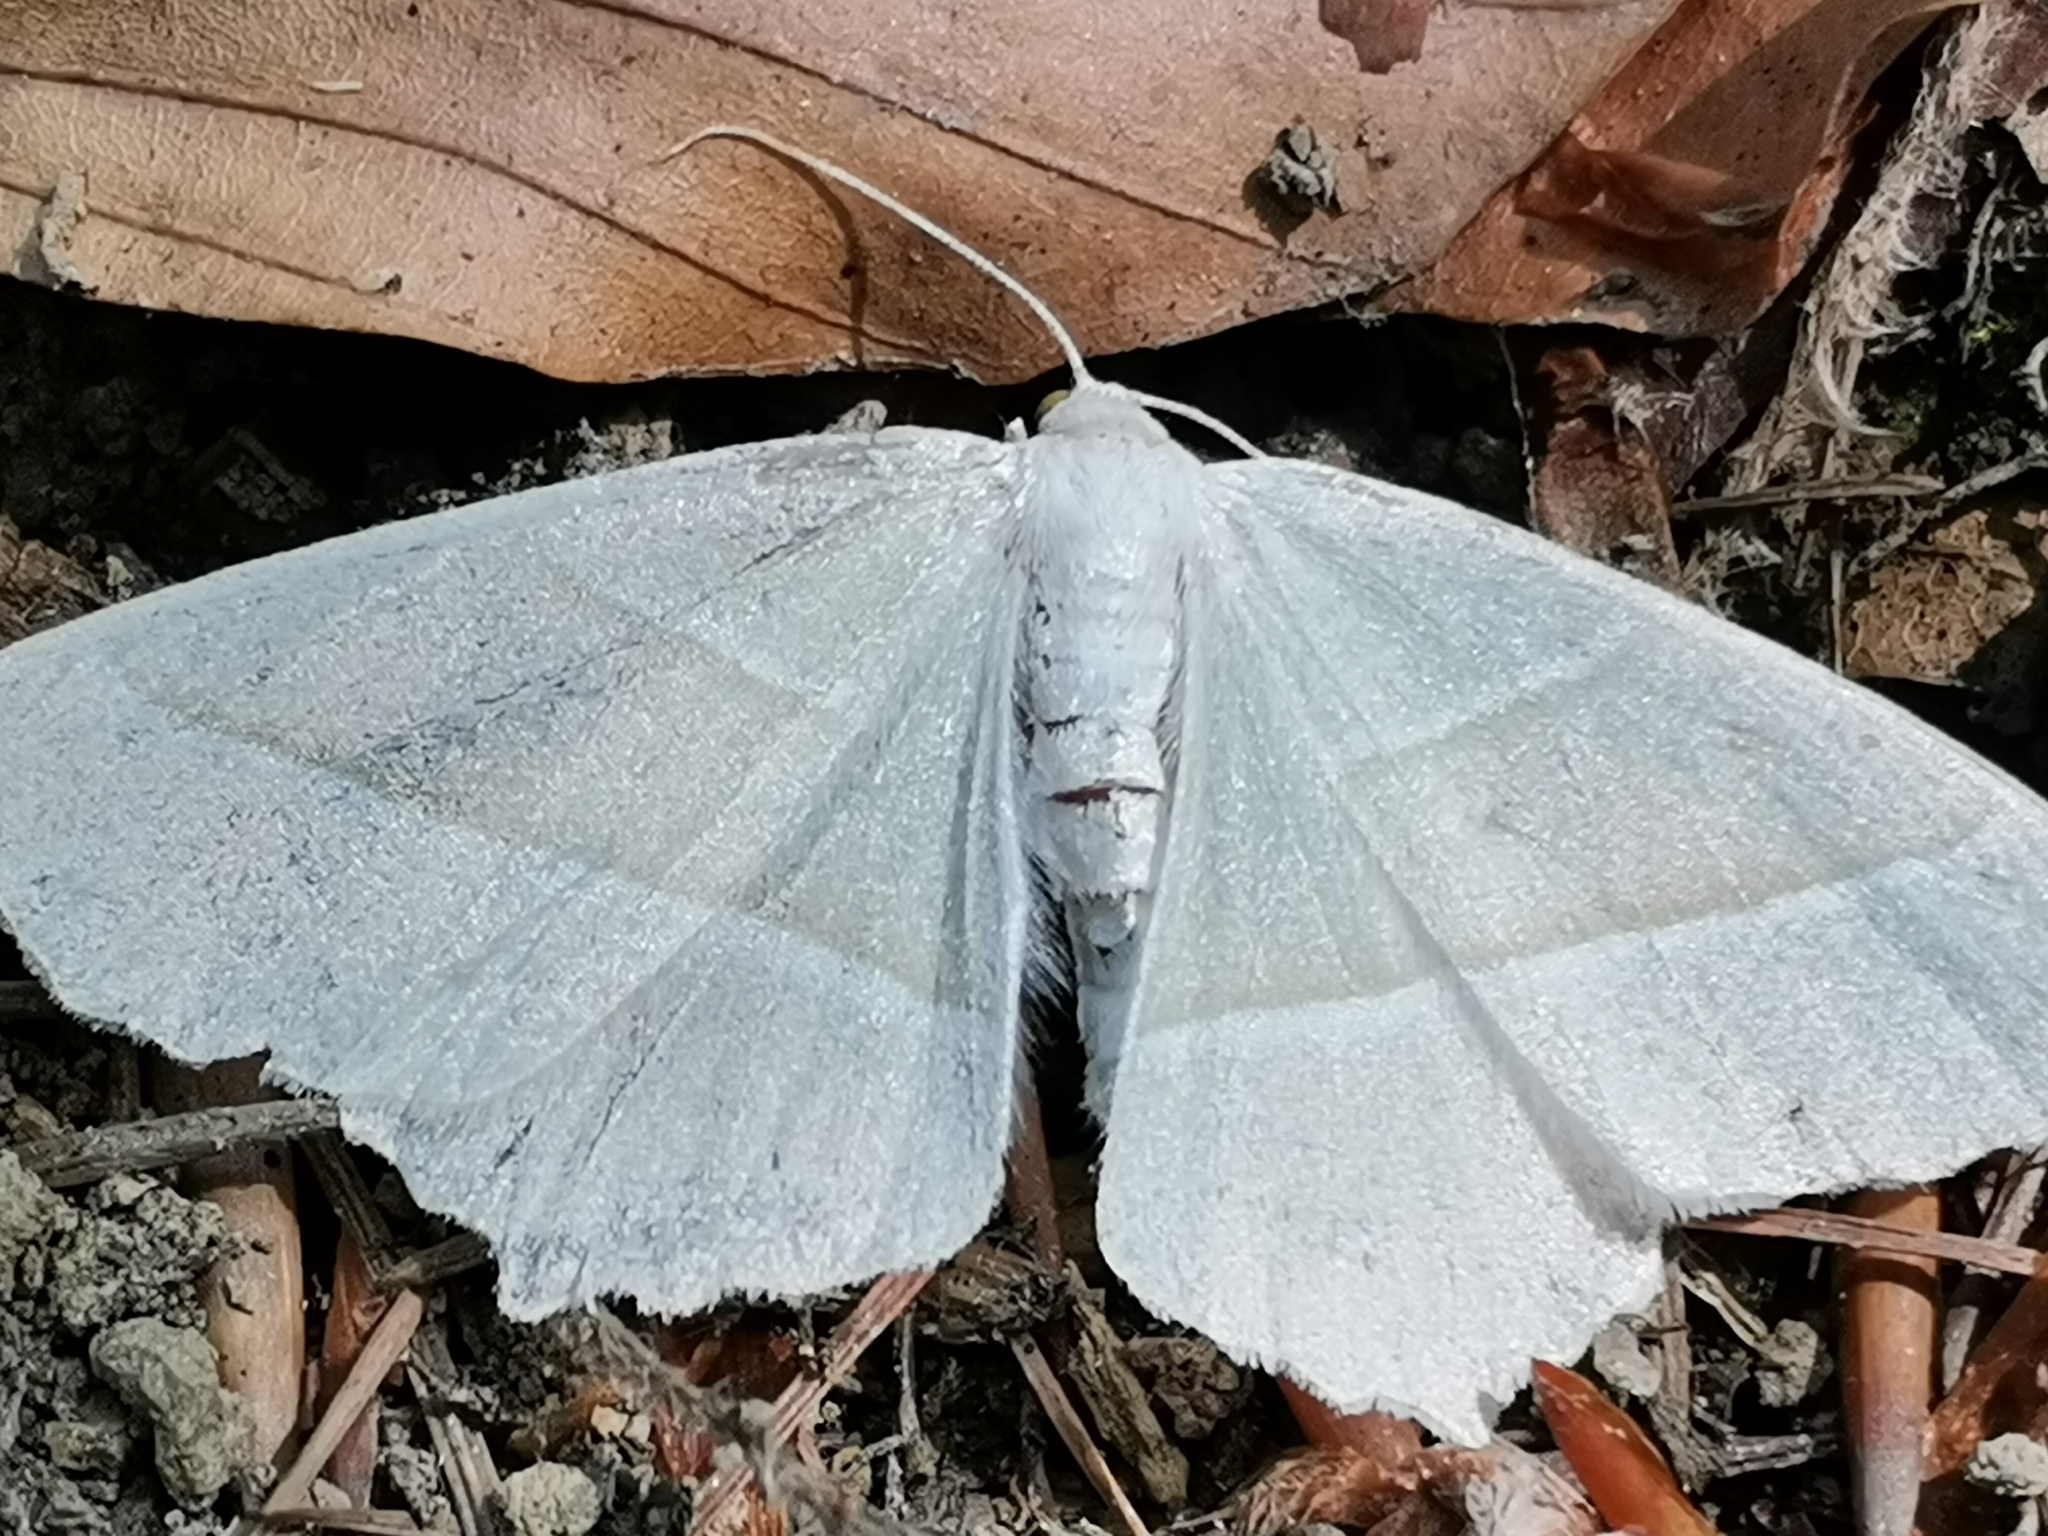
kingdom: Animalia
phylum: Arthropoda
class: Insecta
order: Lepidoptera
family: Geometridae
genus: Campaea
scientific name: Campaea margaritaria
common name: Light emerald
